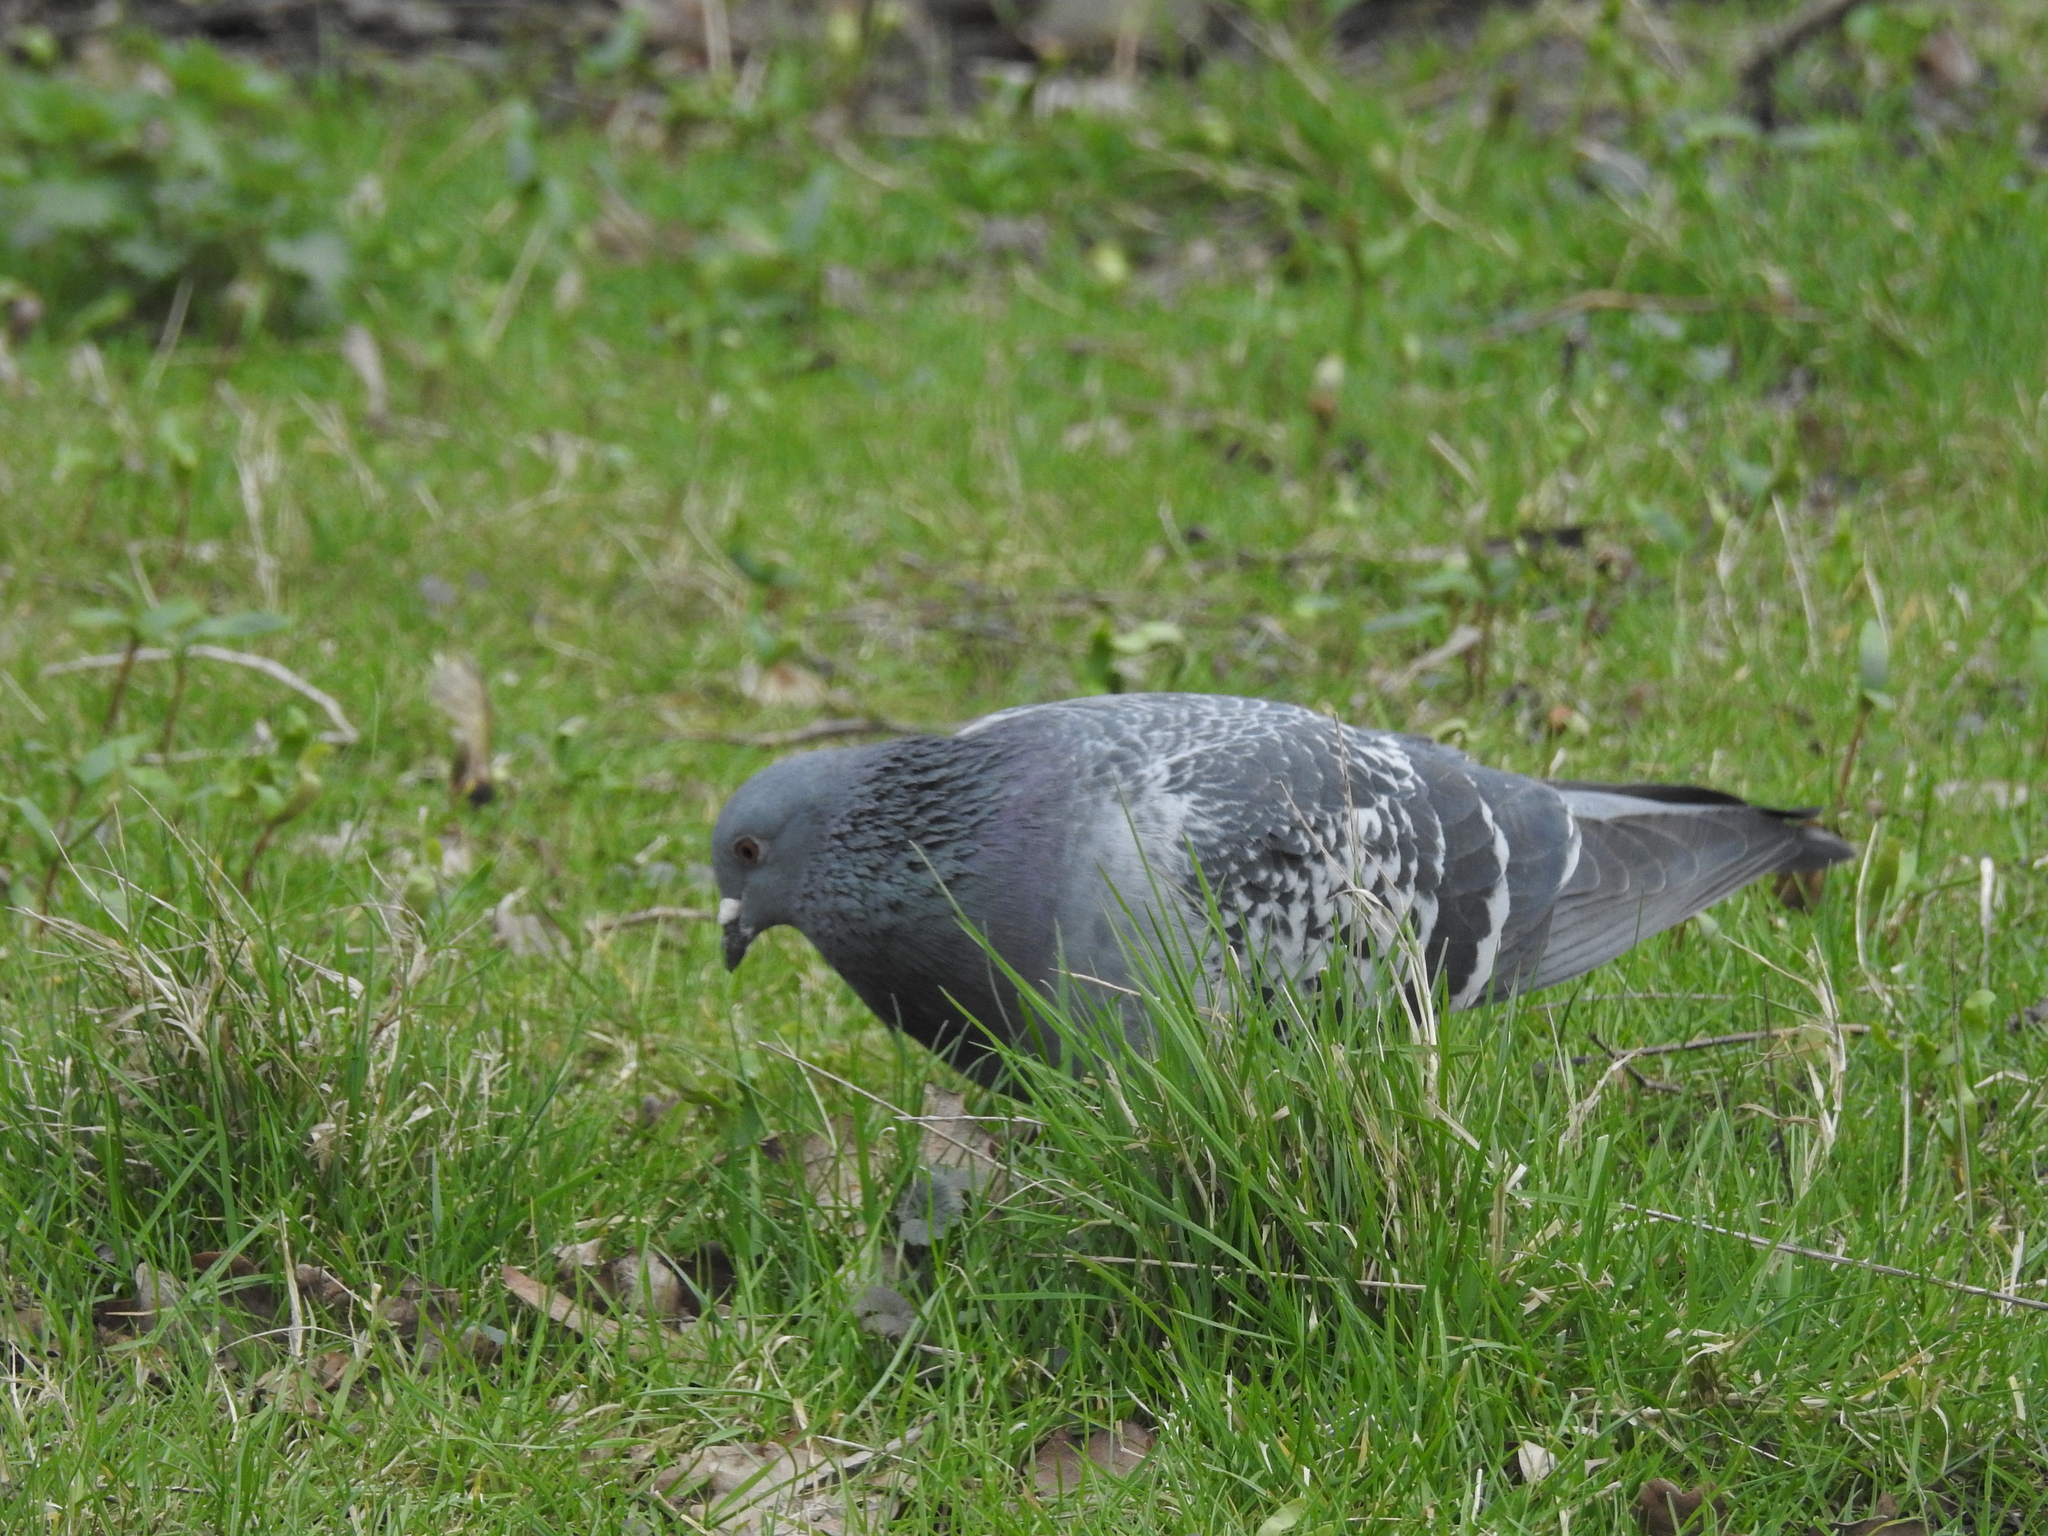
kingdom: Animalia
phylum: Chordata
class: Aves
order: Columbiformes
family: Columbidae
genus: Columba
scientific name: Columba livia
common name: Rock pigeon
